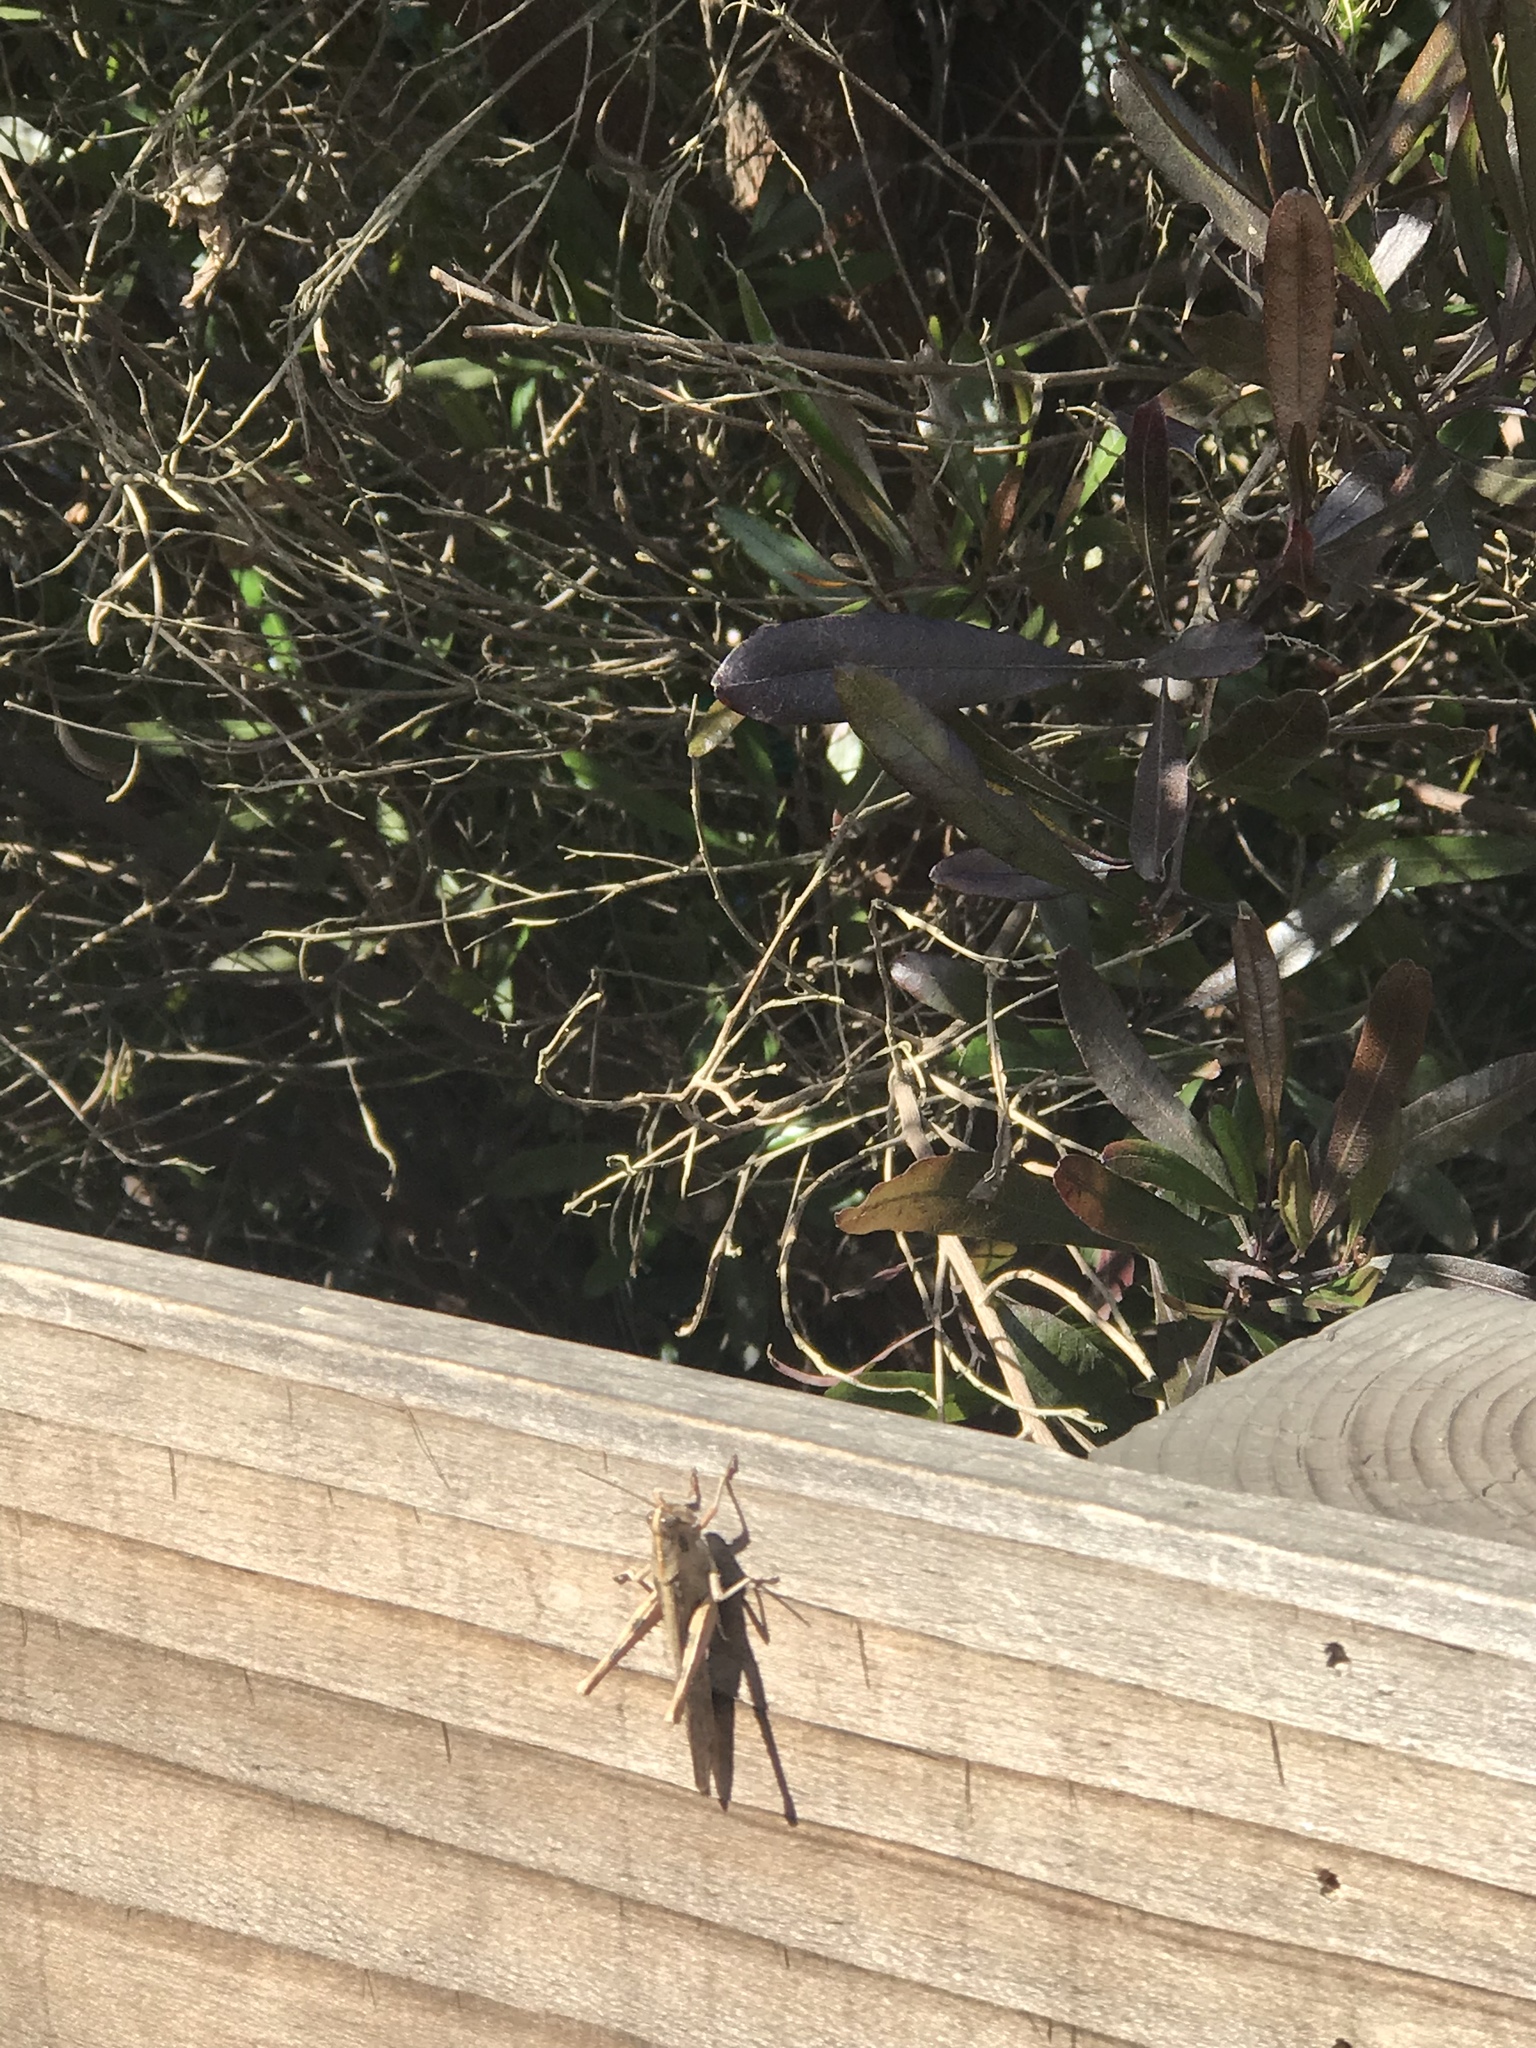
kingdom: Animalia
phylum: Arthropoda
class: Insecta
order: Orthoptera
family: Acrididae
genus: Schistocerca
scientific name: Schistocerca nitens
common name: Vagrant grasshopper
